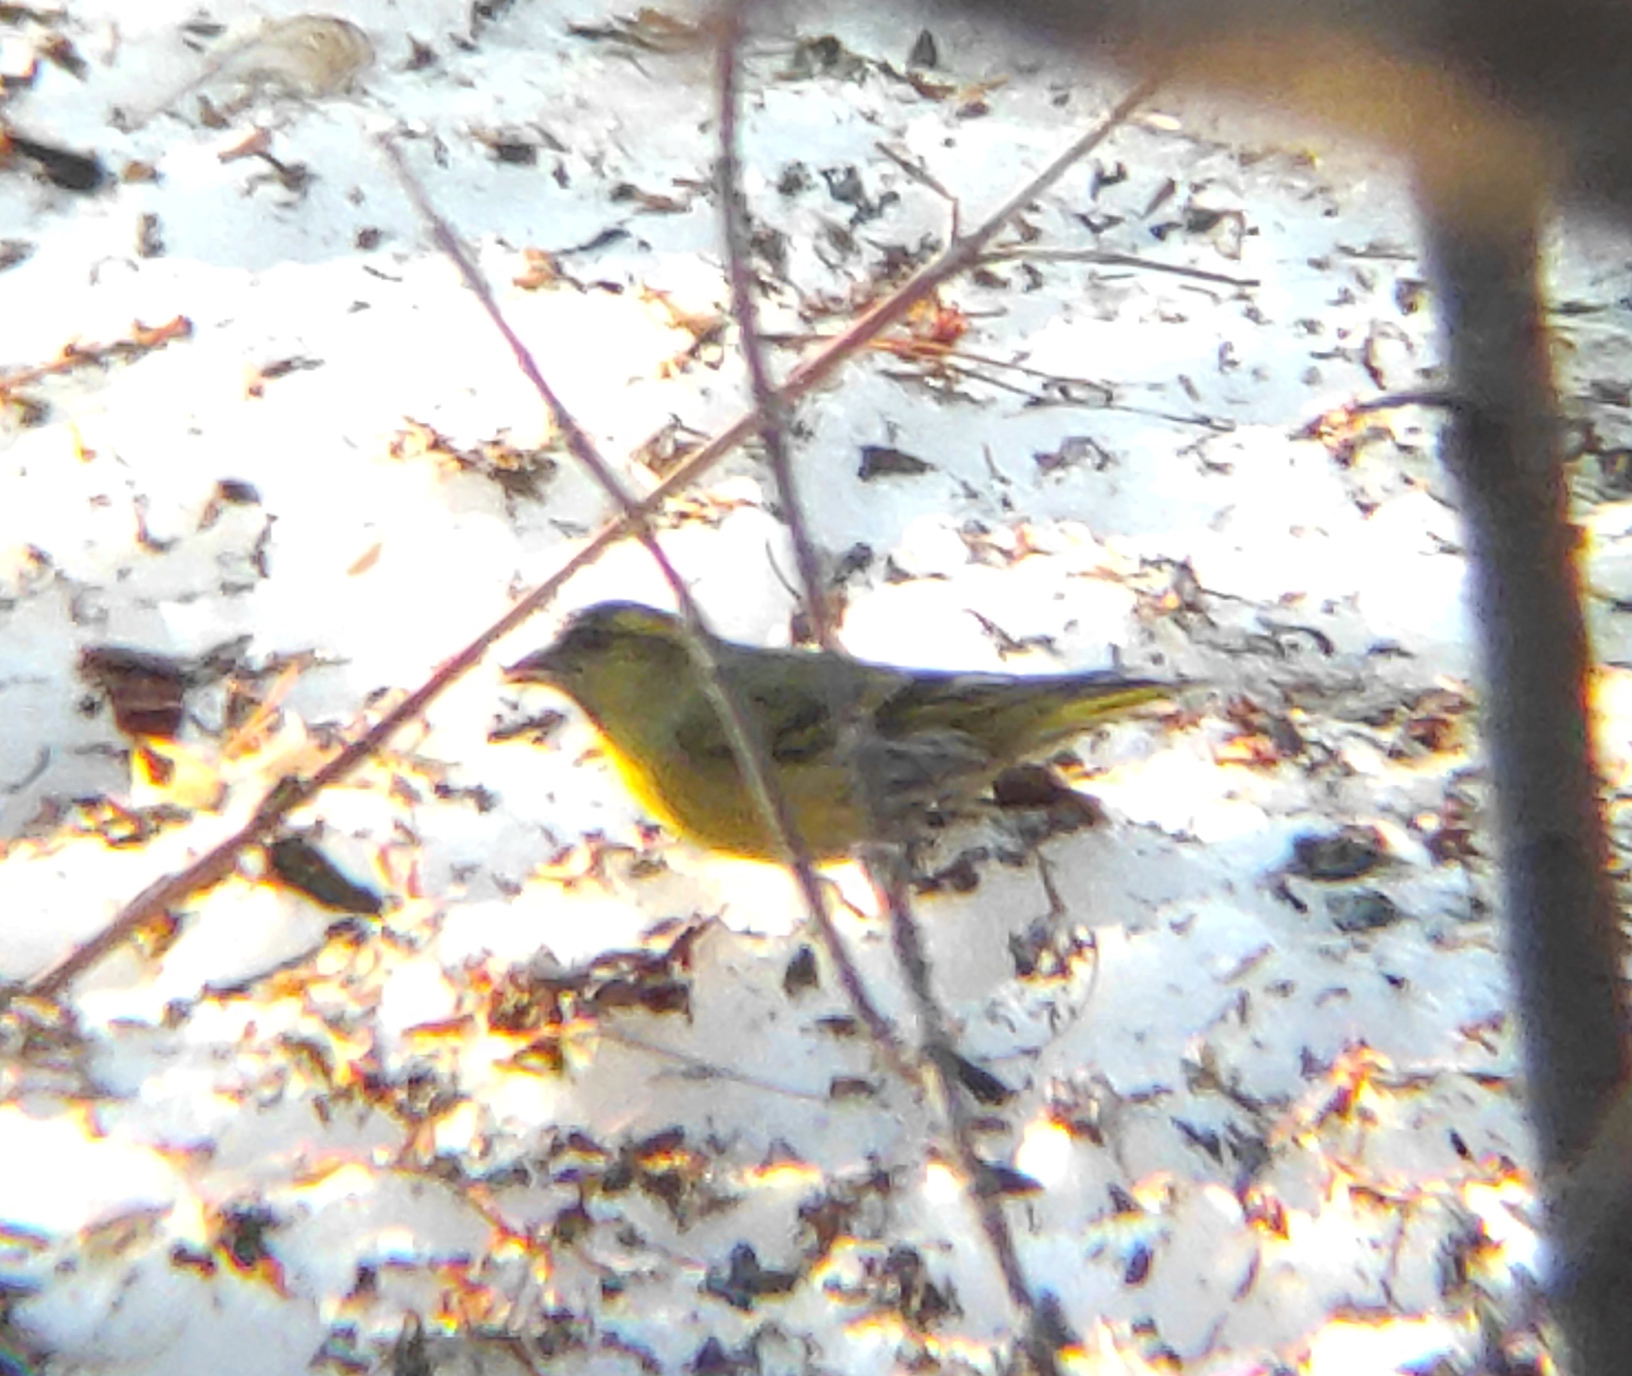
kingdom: Animalia
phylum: Chordata
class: Aves
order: Passeriformes
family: Fringillidae
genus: Spinus
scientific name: Spinus spinus
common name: Eurasian siskin
